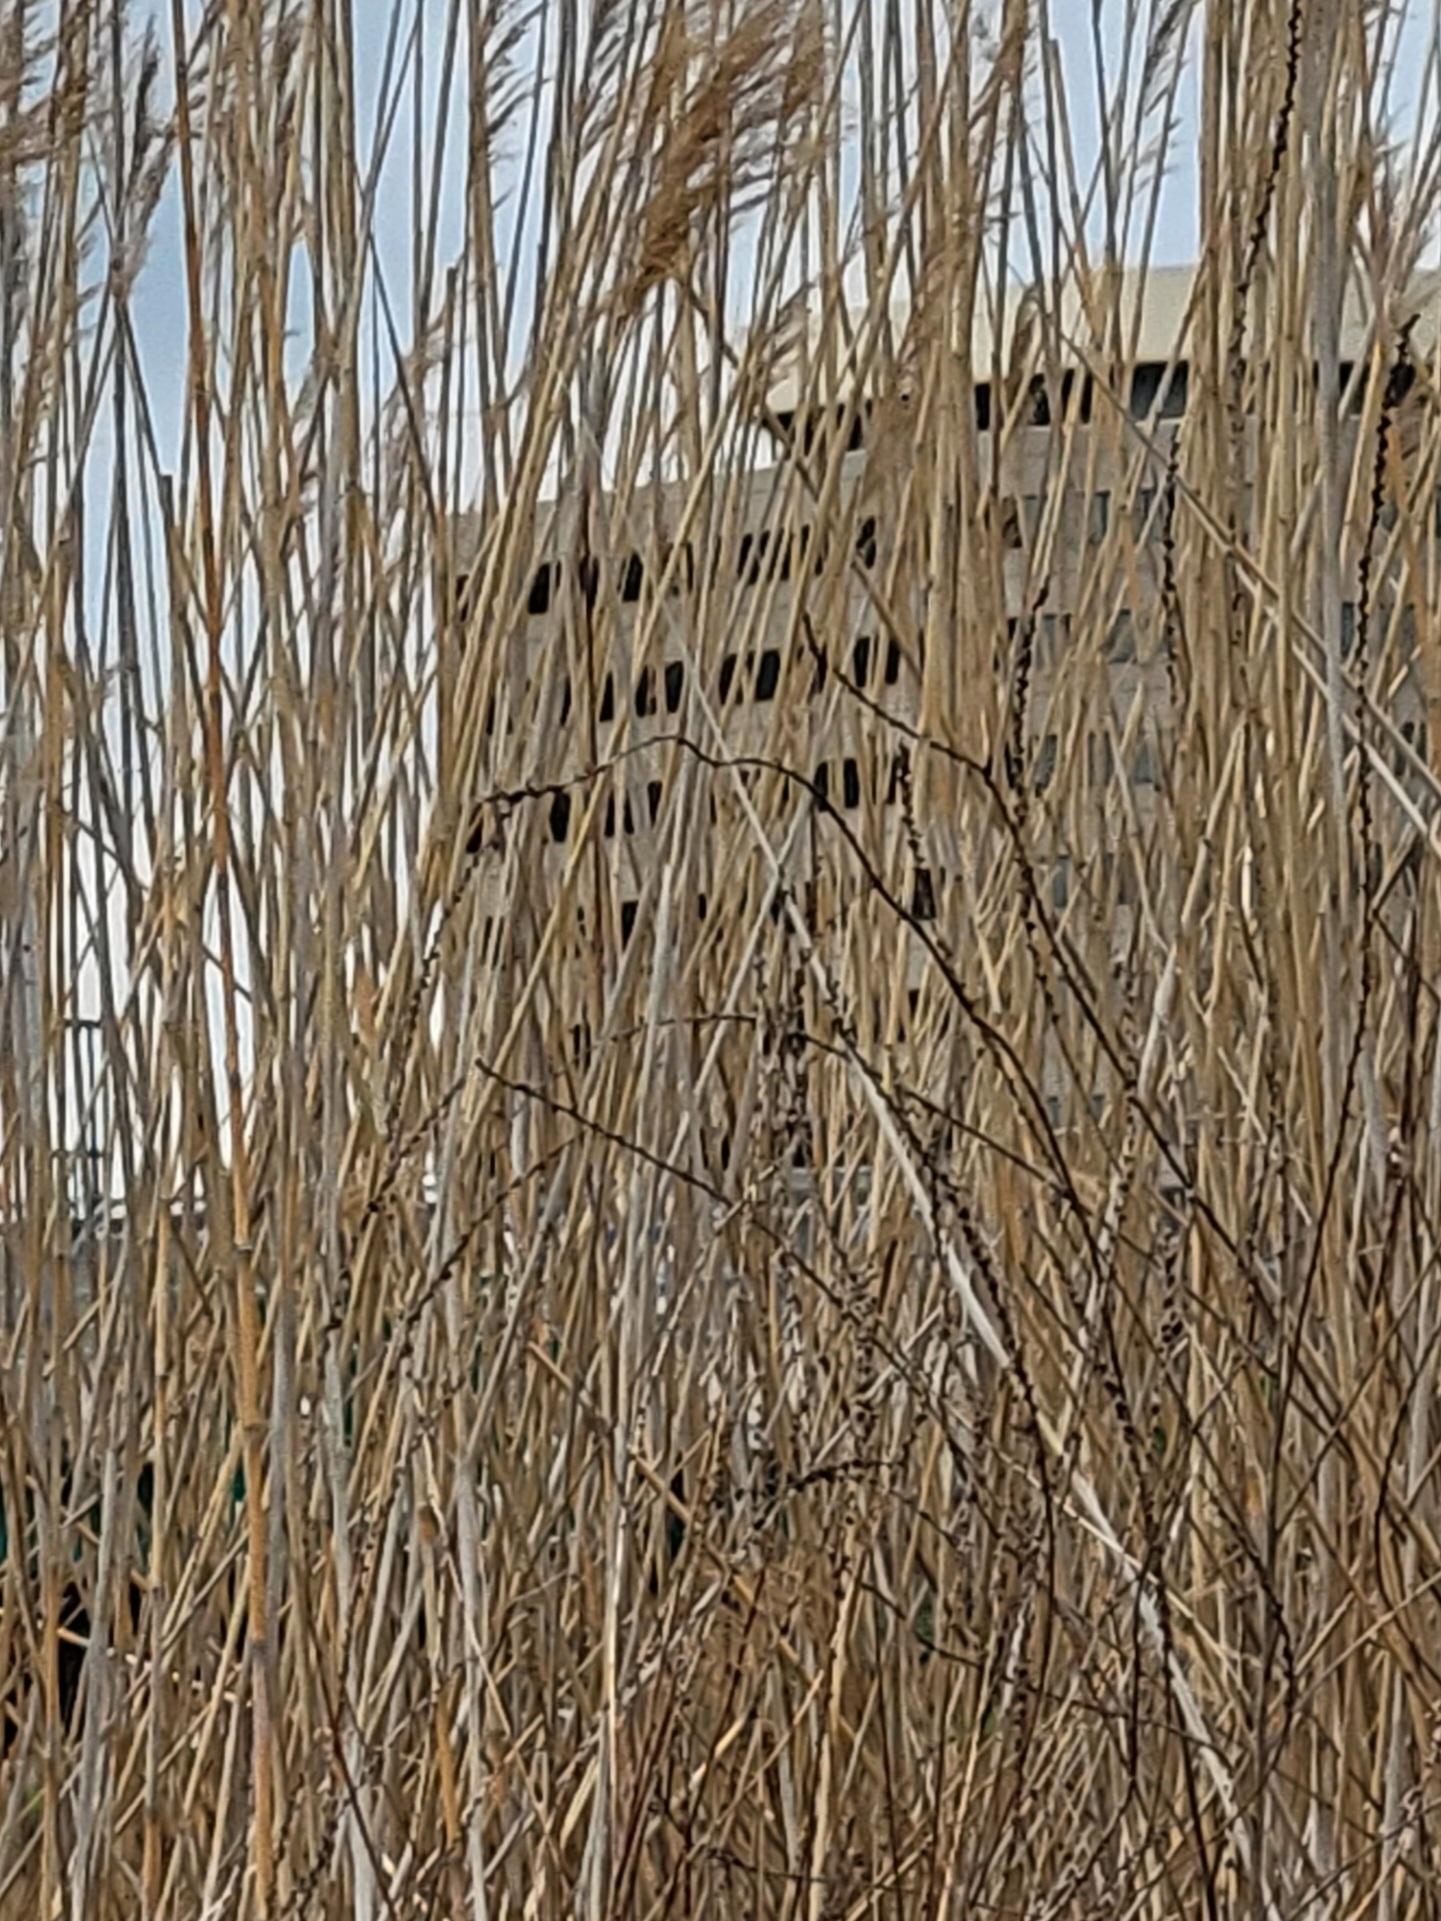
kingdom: Plantae
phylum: Tracheophyta
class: Liliopsida
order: Poales
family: Poaceae
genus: Phragmites
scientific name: Phragmites australis
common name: Common reed
